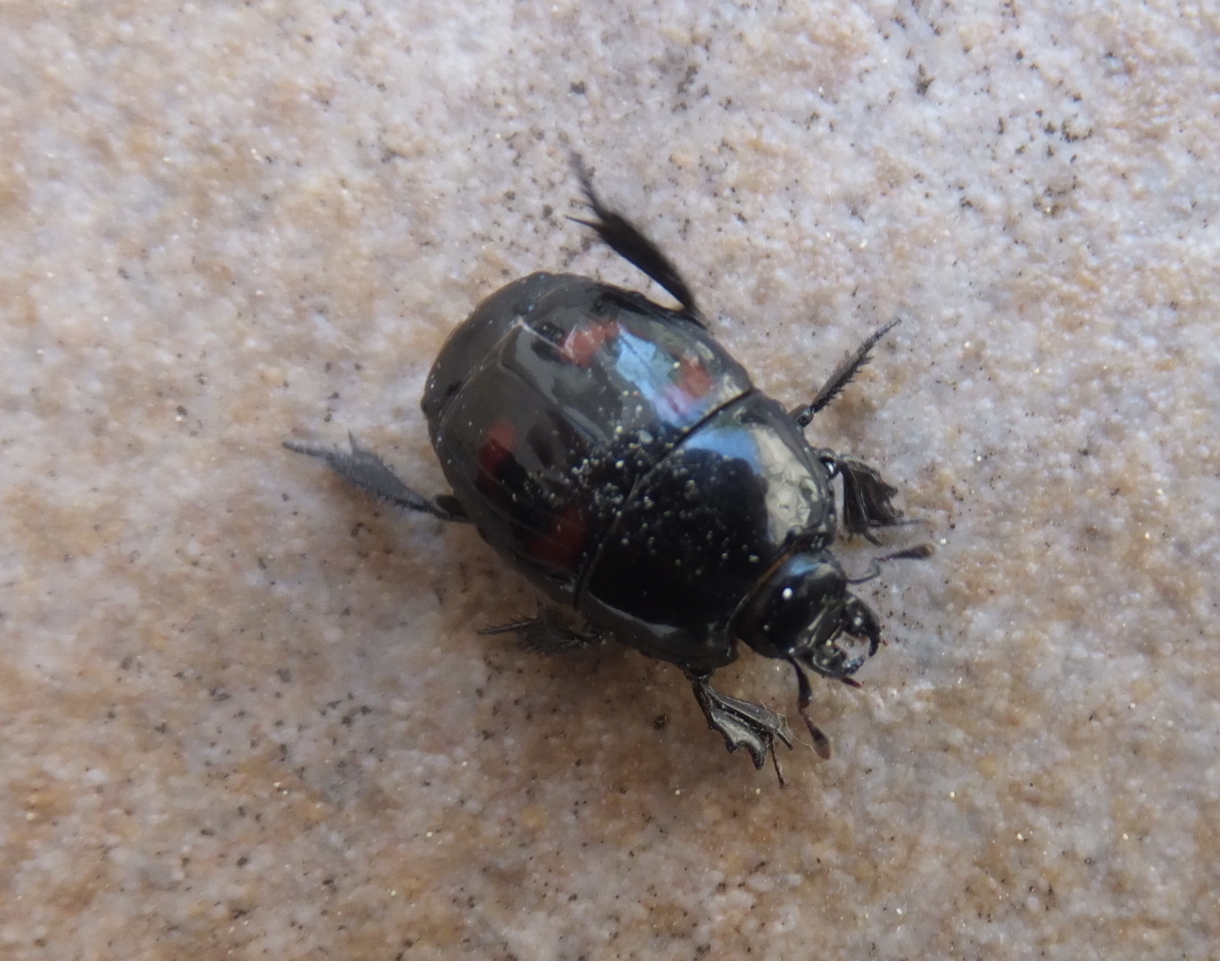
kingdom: Animalia
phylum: Arthropoda
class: Insecta
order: Coleoptera
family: Histeridae
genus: Hister
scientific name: Hister quadrimaculatus
